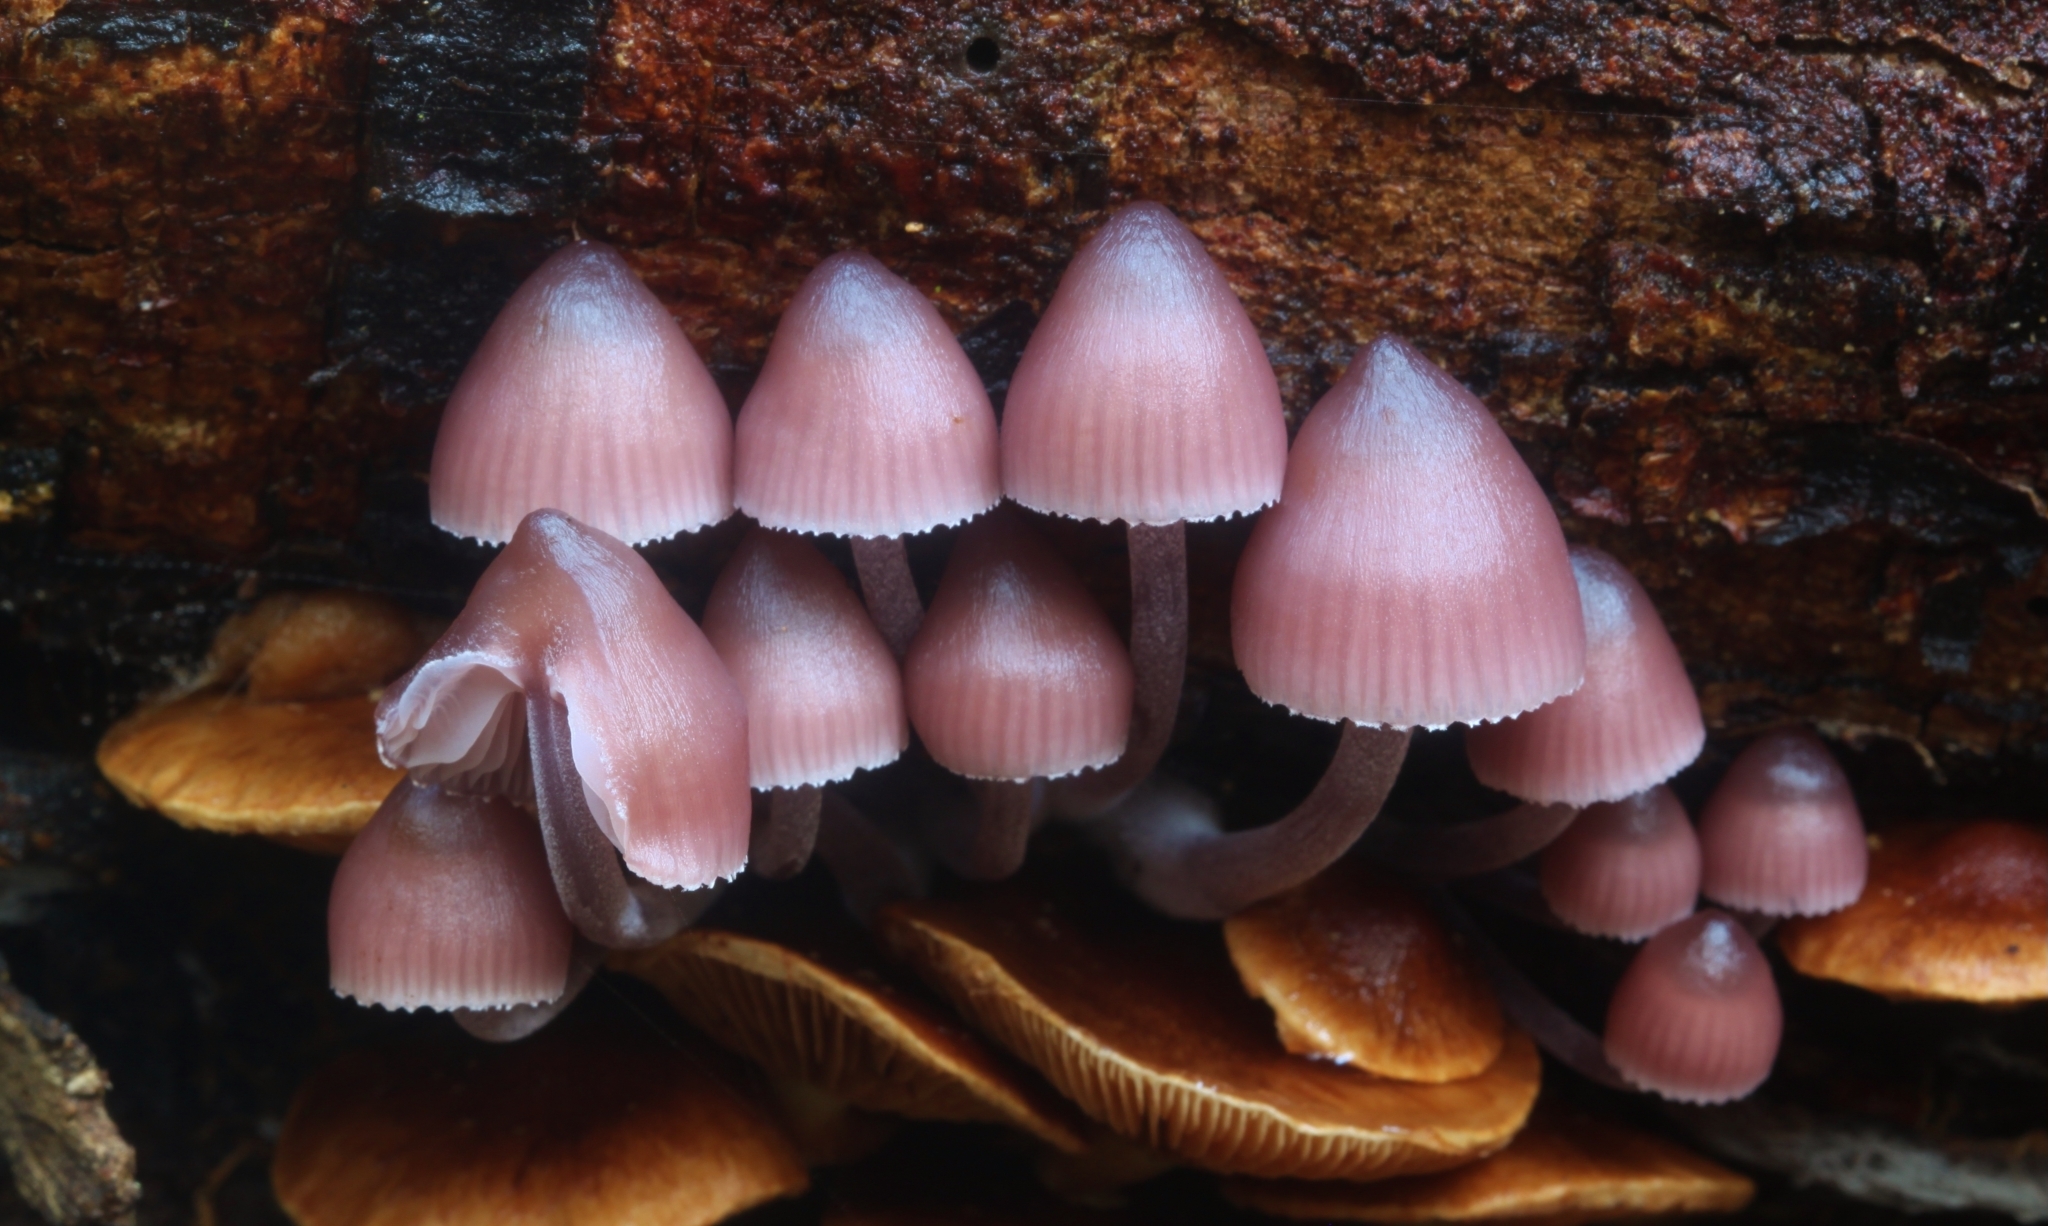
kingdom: Fungi
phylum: Basidiomycota
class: Agaricomycetes
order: Agaricales
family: Mycenaceae
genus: Mycena
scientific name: Mycena clarkeana
